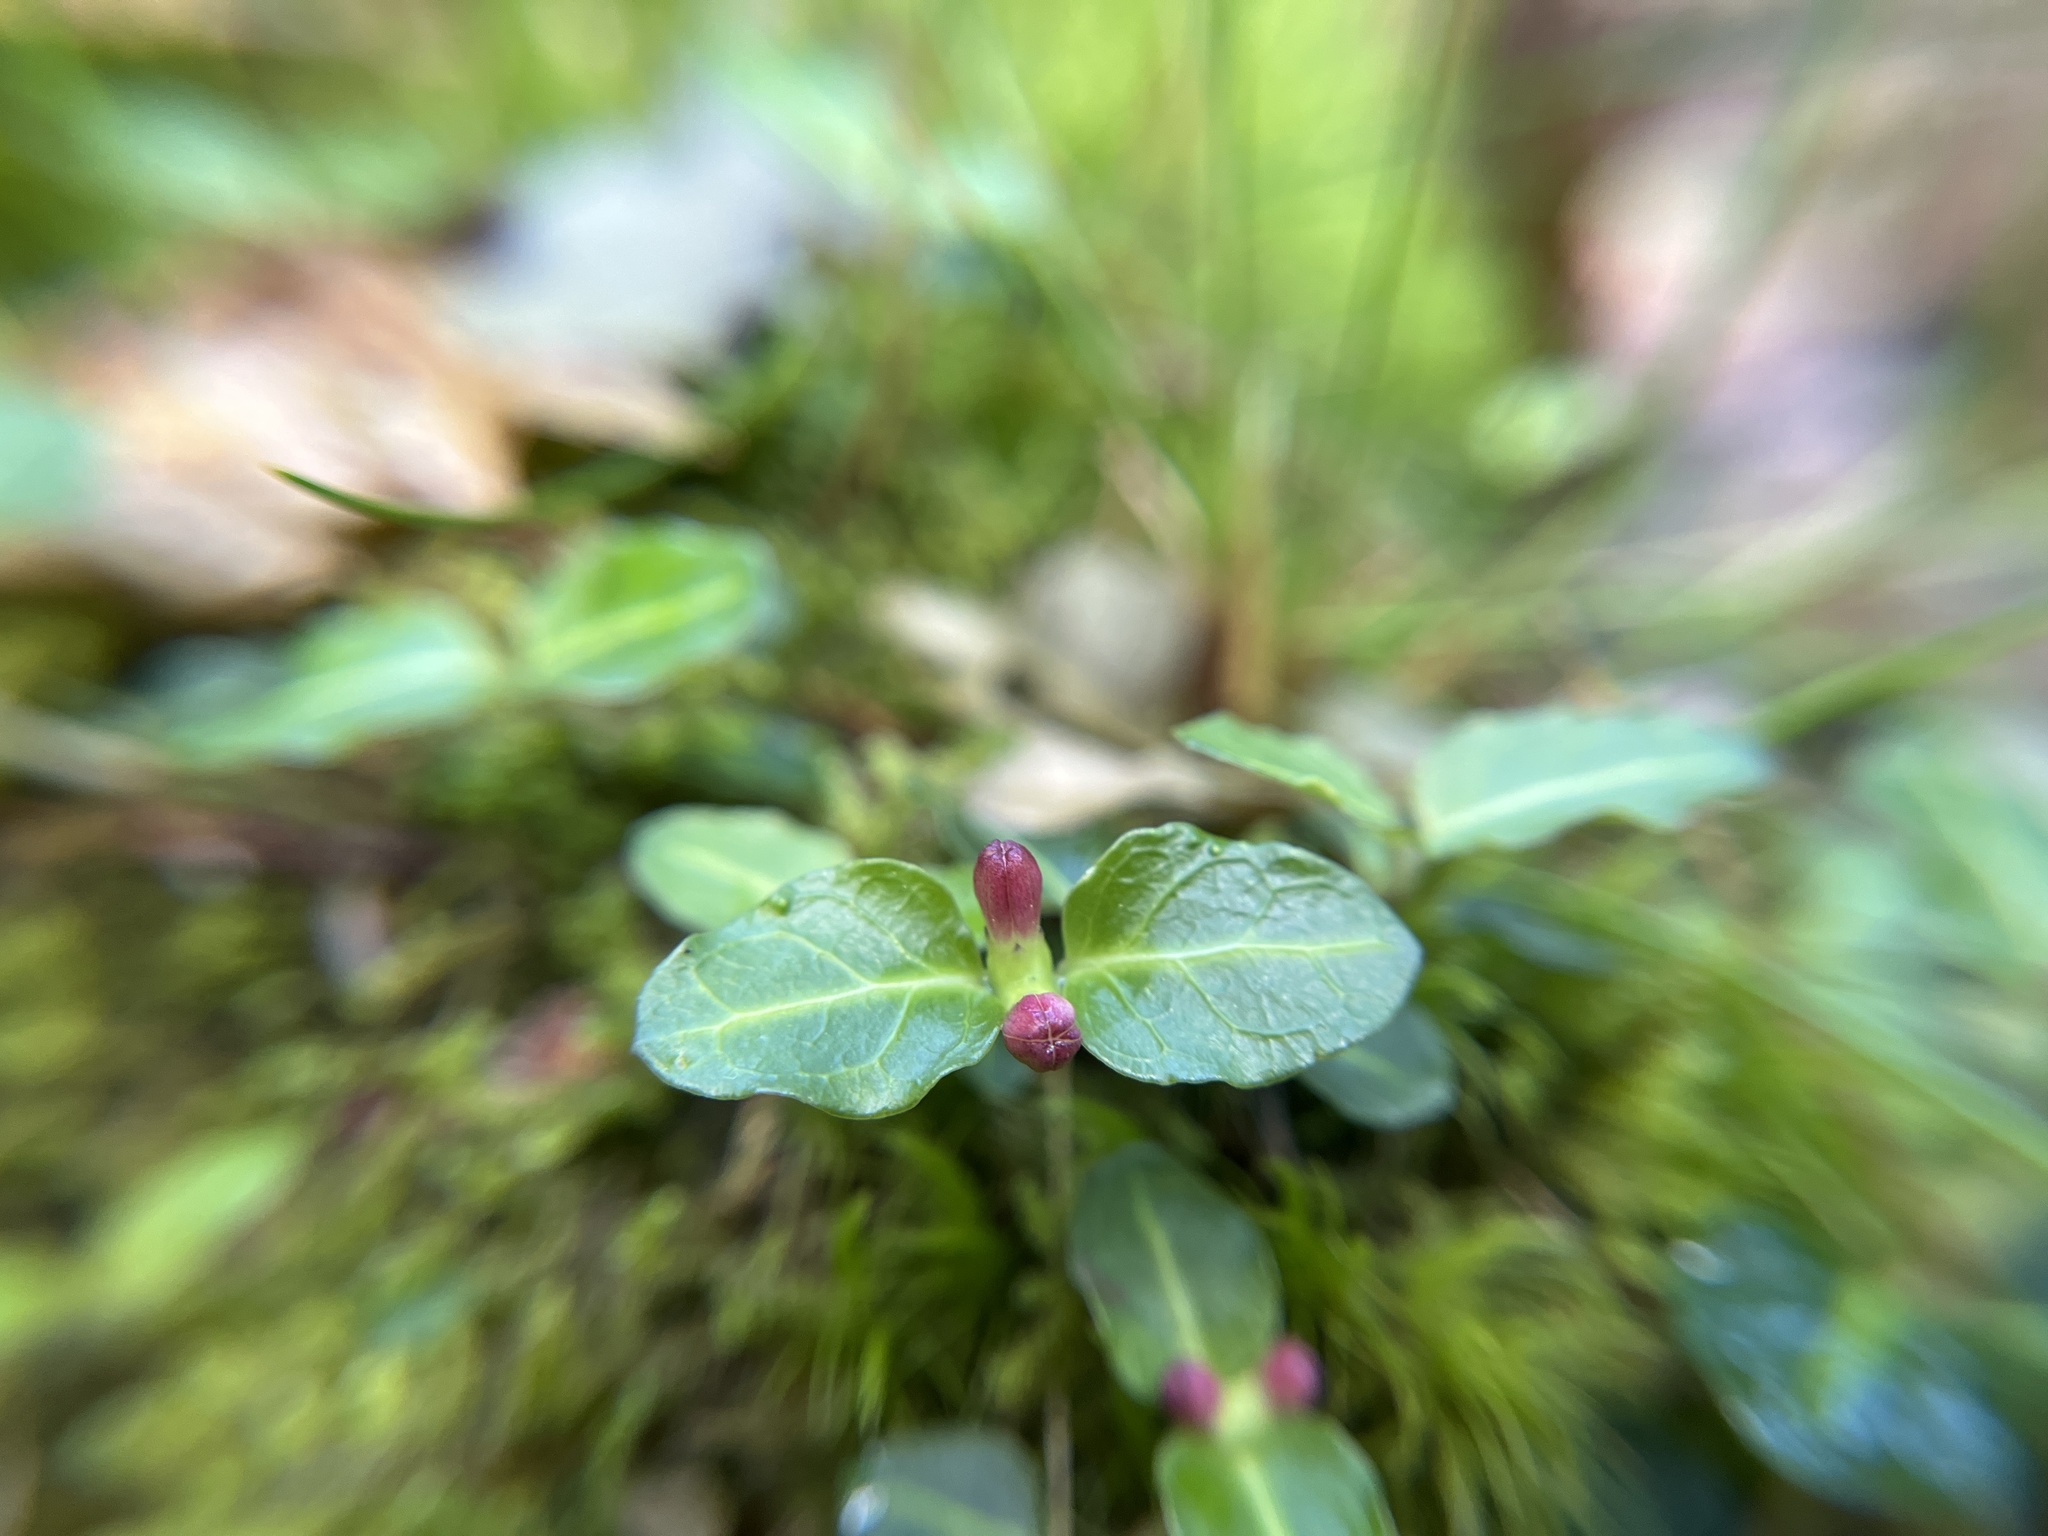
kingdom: Plantae
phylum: Tracheophyta
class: Magnoliopsida
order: Gentianales
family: Rubiaceae
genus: Mitchella
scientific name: Mitchella repens
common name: Partridge-berry
